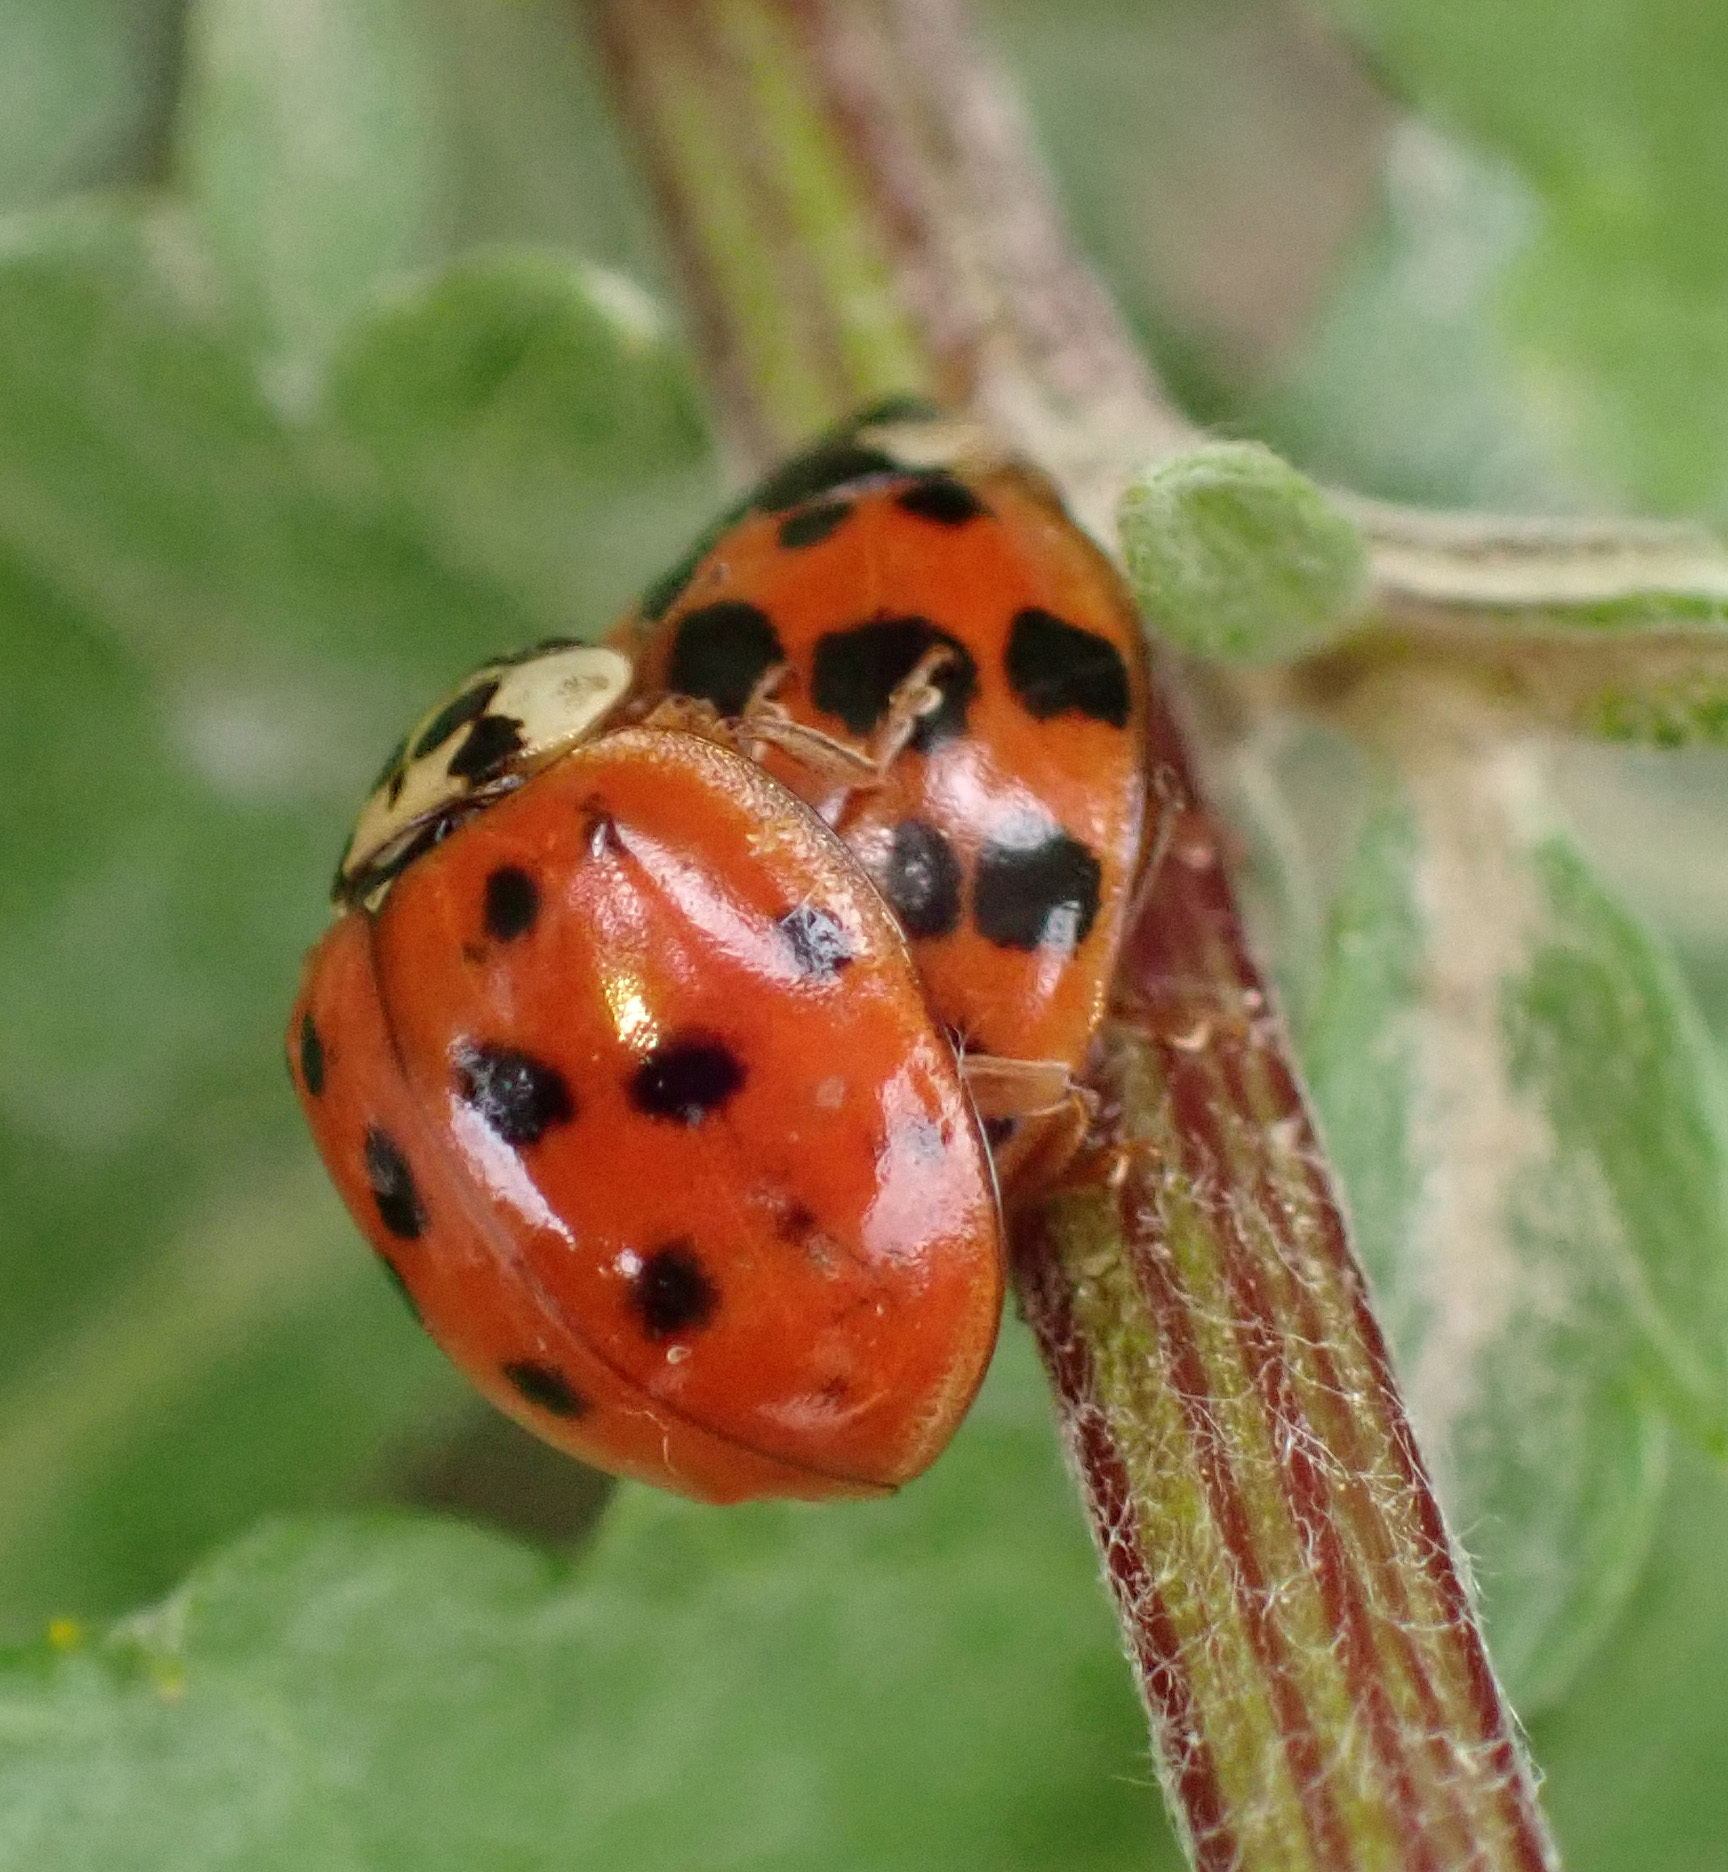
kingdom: Animalia
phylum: Arthropoda
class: Insecta
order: Coleoptera
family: Coccinellidae
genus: Harmonia
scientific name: Harmonia axyridis
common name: Harlequin ladybird
